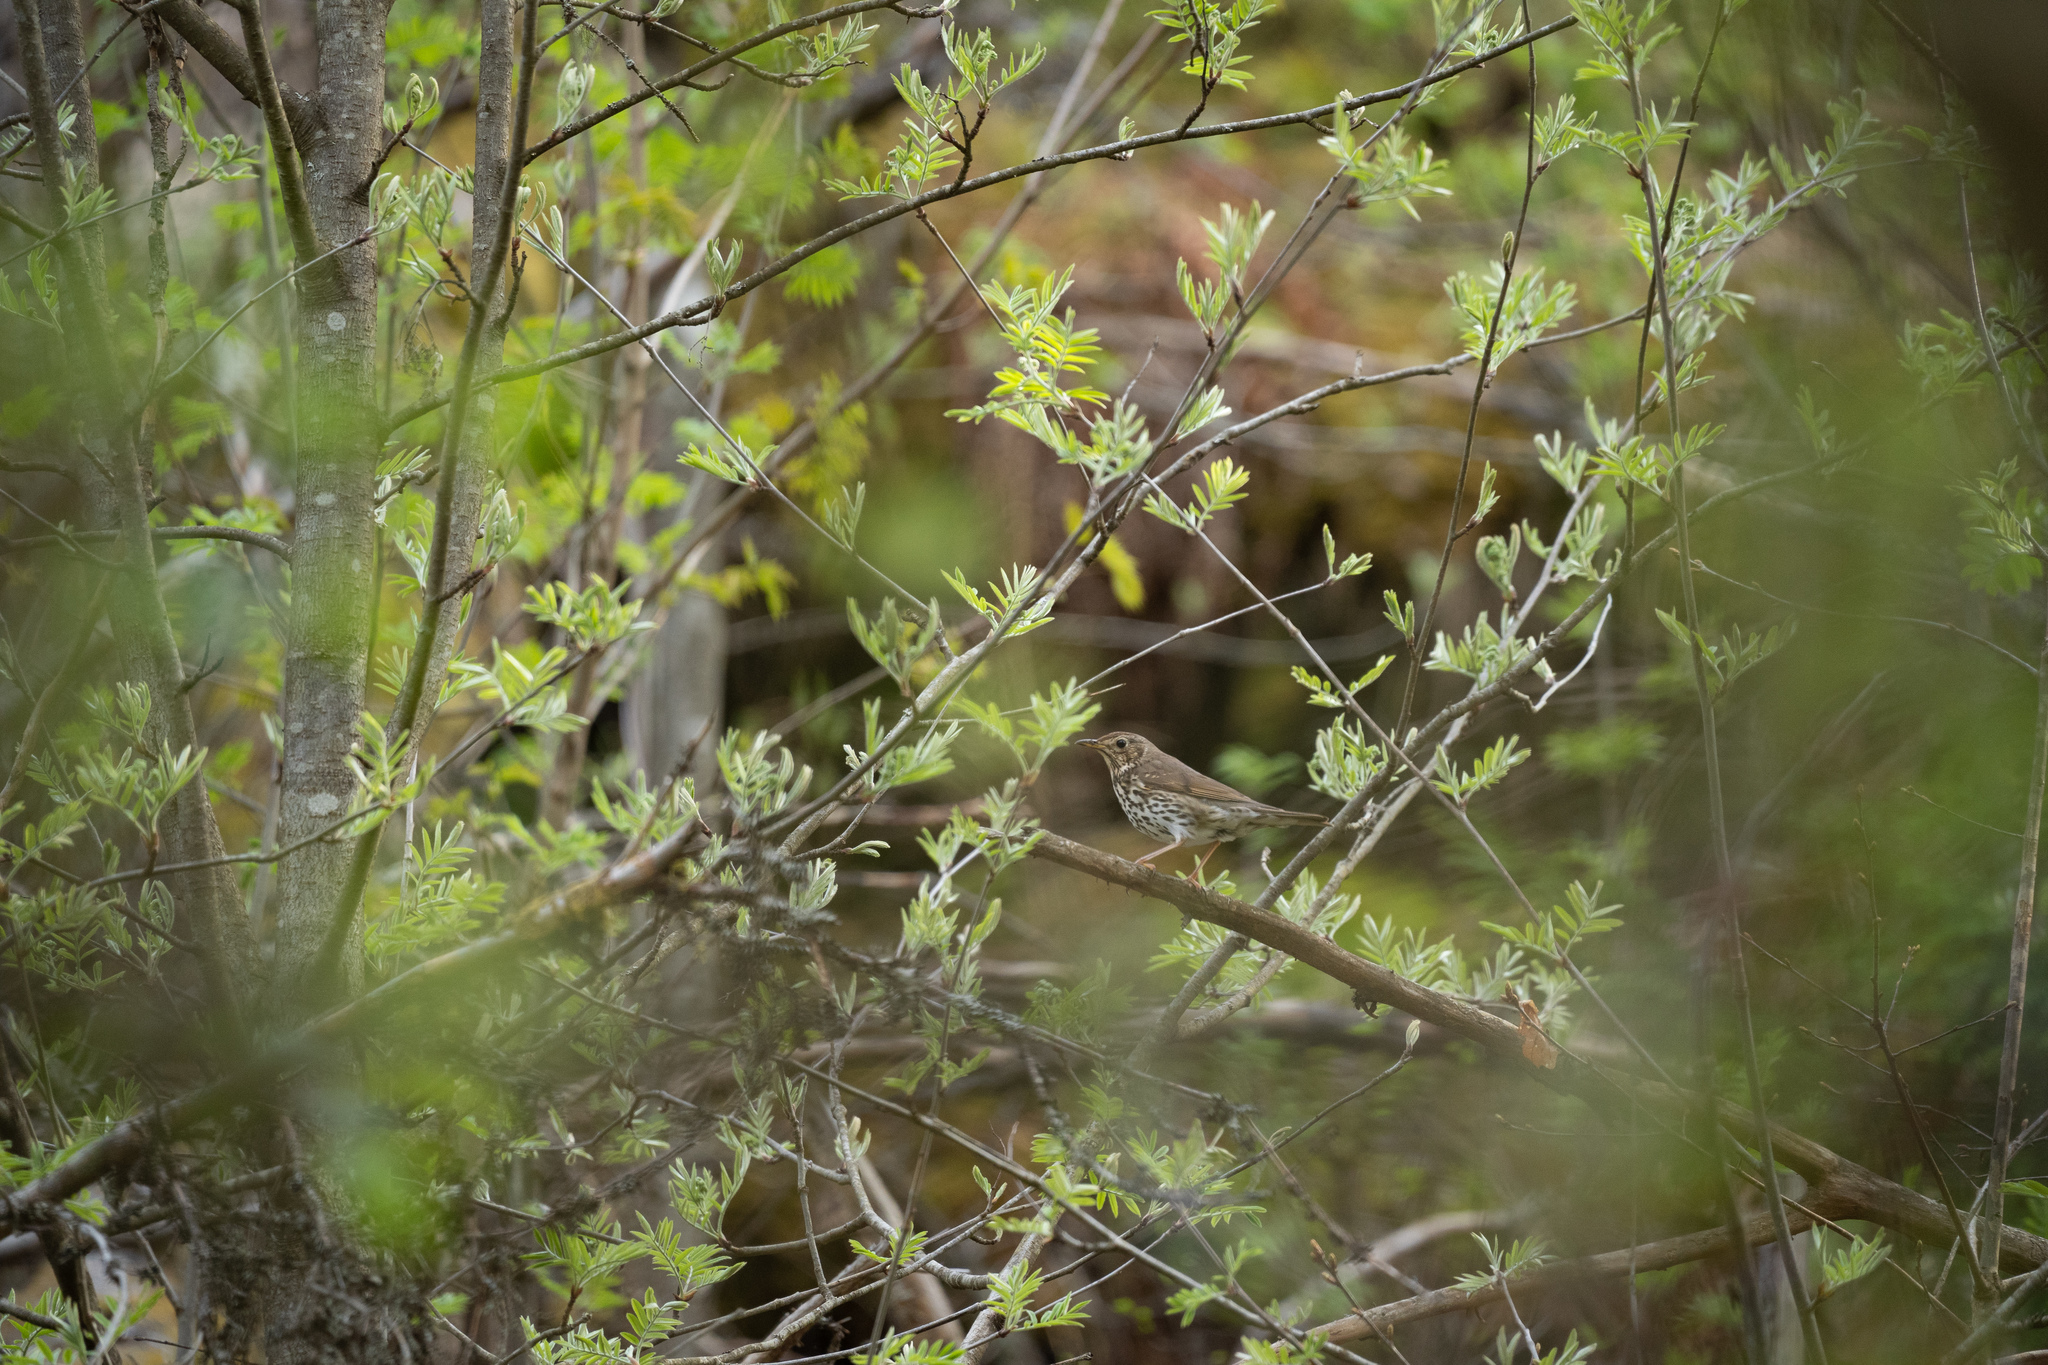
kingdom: Animalia
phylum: Chordata
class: Aves
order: Passeriformes
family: Turdidae
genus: Turdus
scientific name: Turdus philomelos
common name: Song thrush
